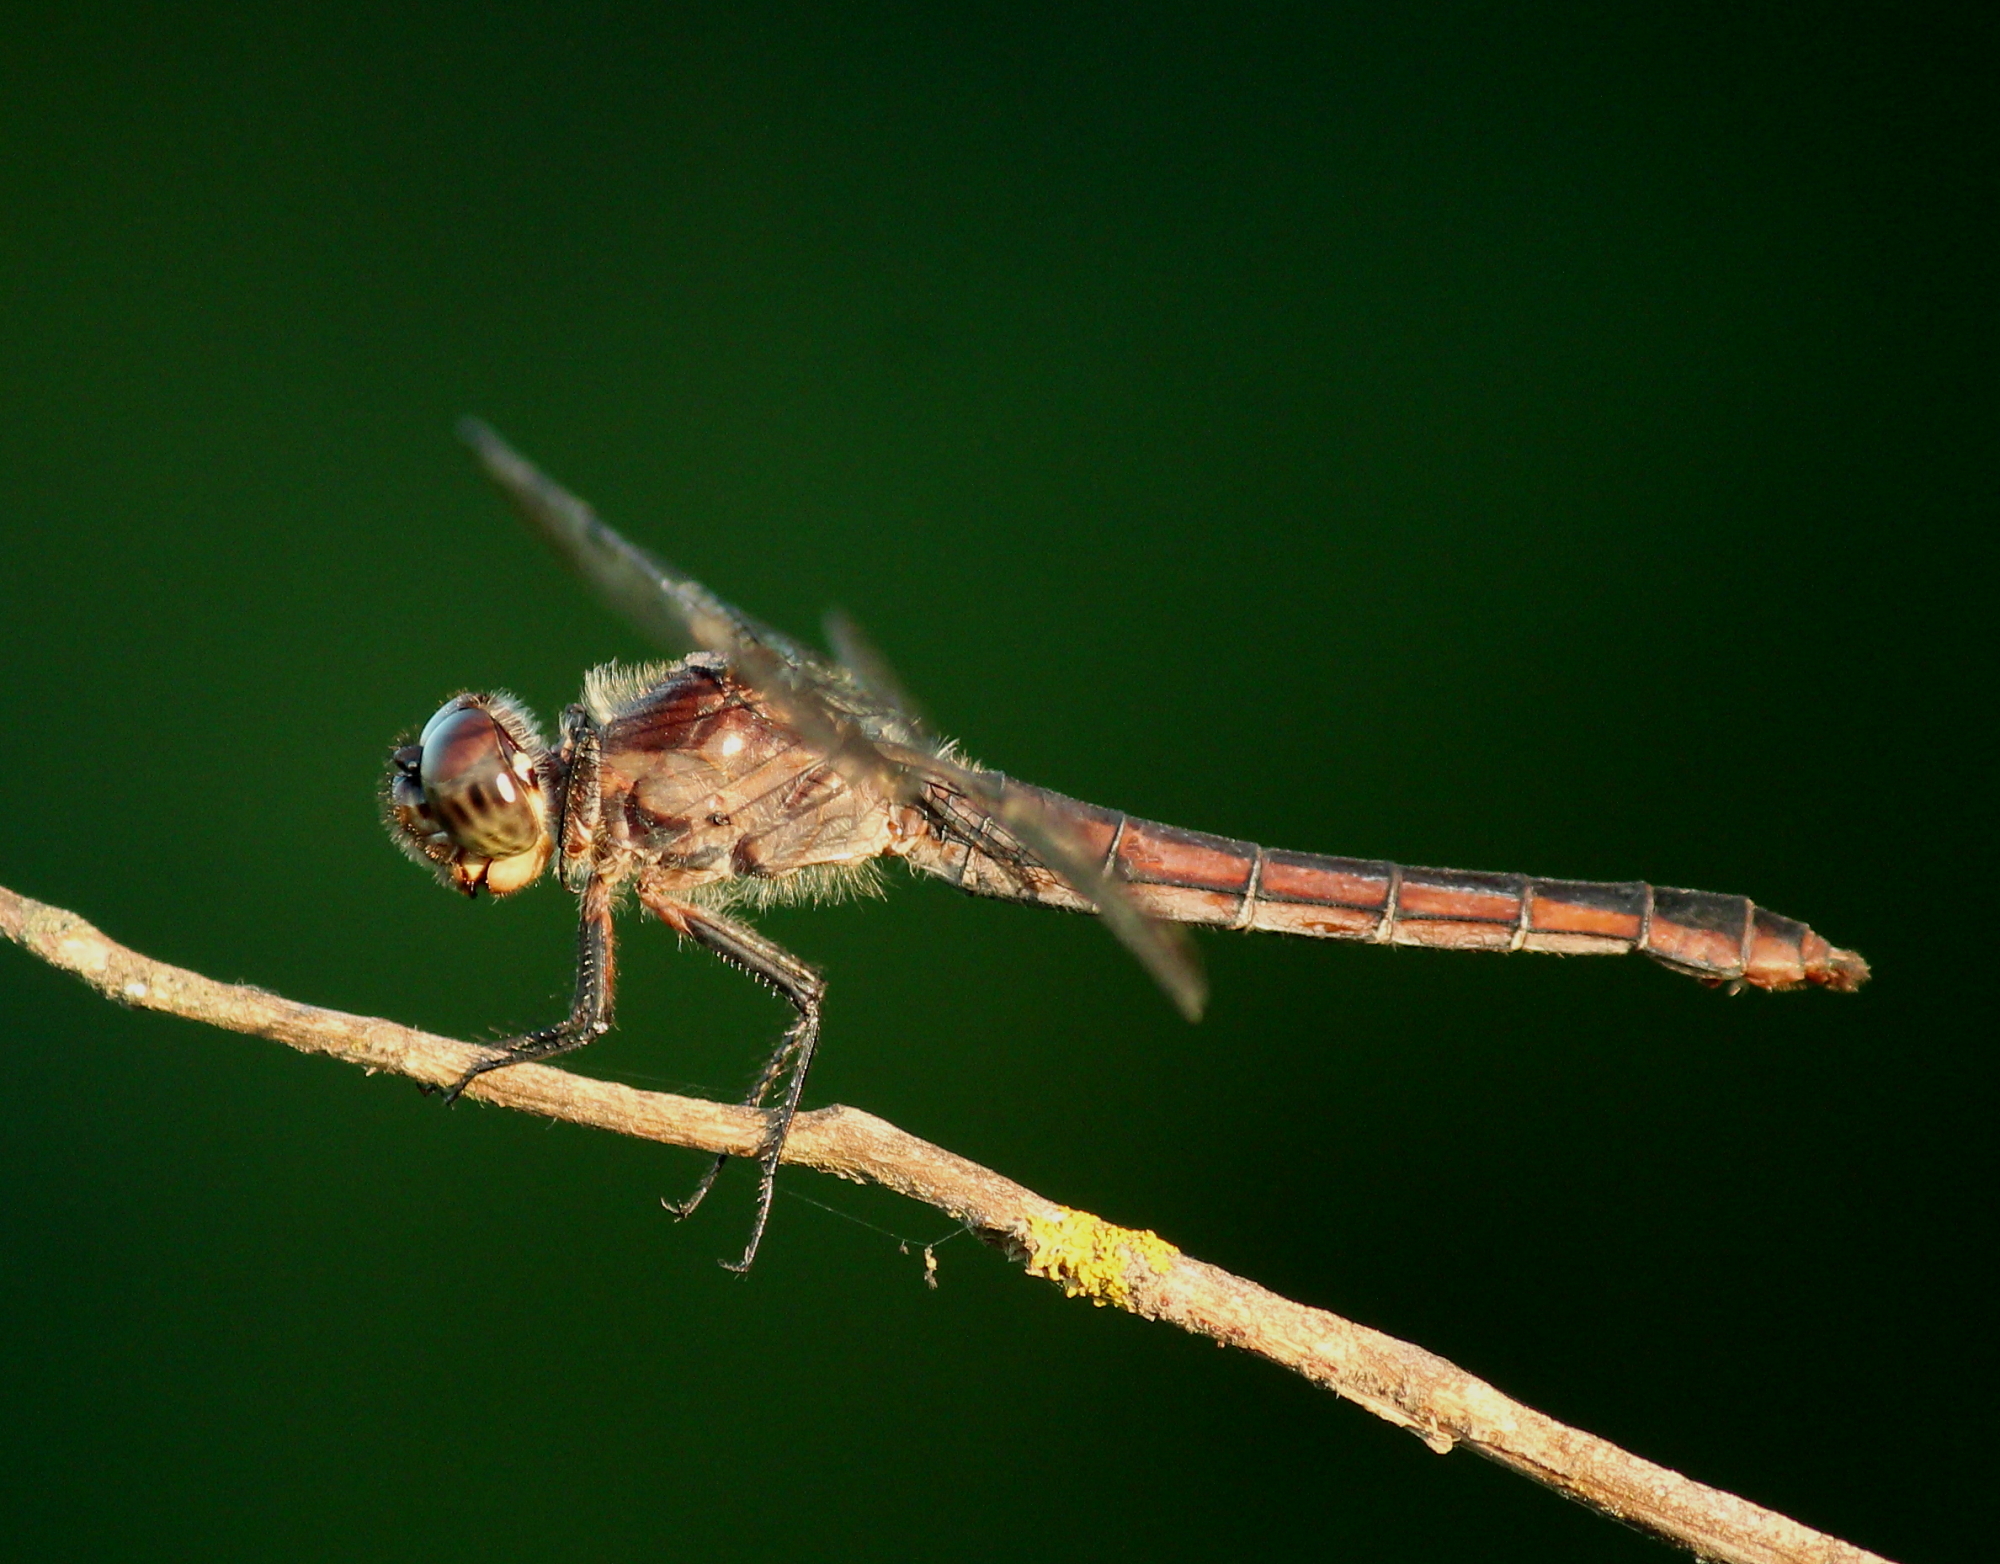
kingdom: Animalia
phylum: Arthropoda
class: Insecta
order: Odonata
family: Libellulidae
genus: Libellula
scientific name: Libellula incesta
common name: Slaty skimmer
